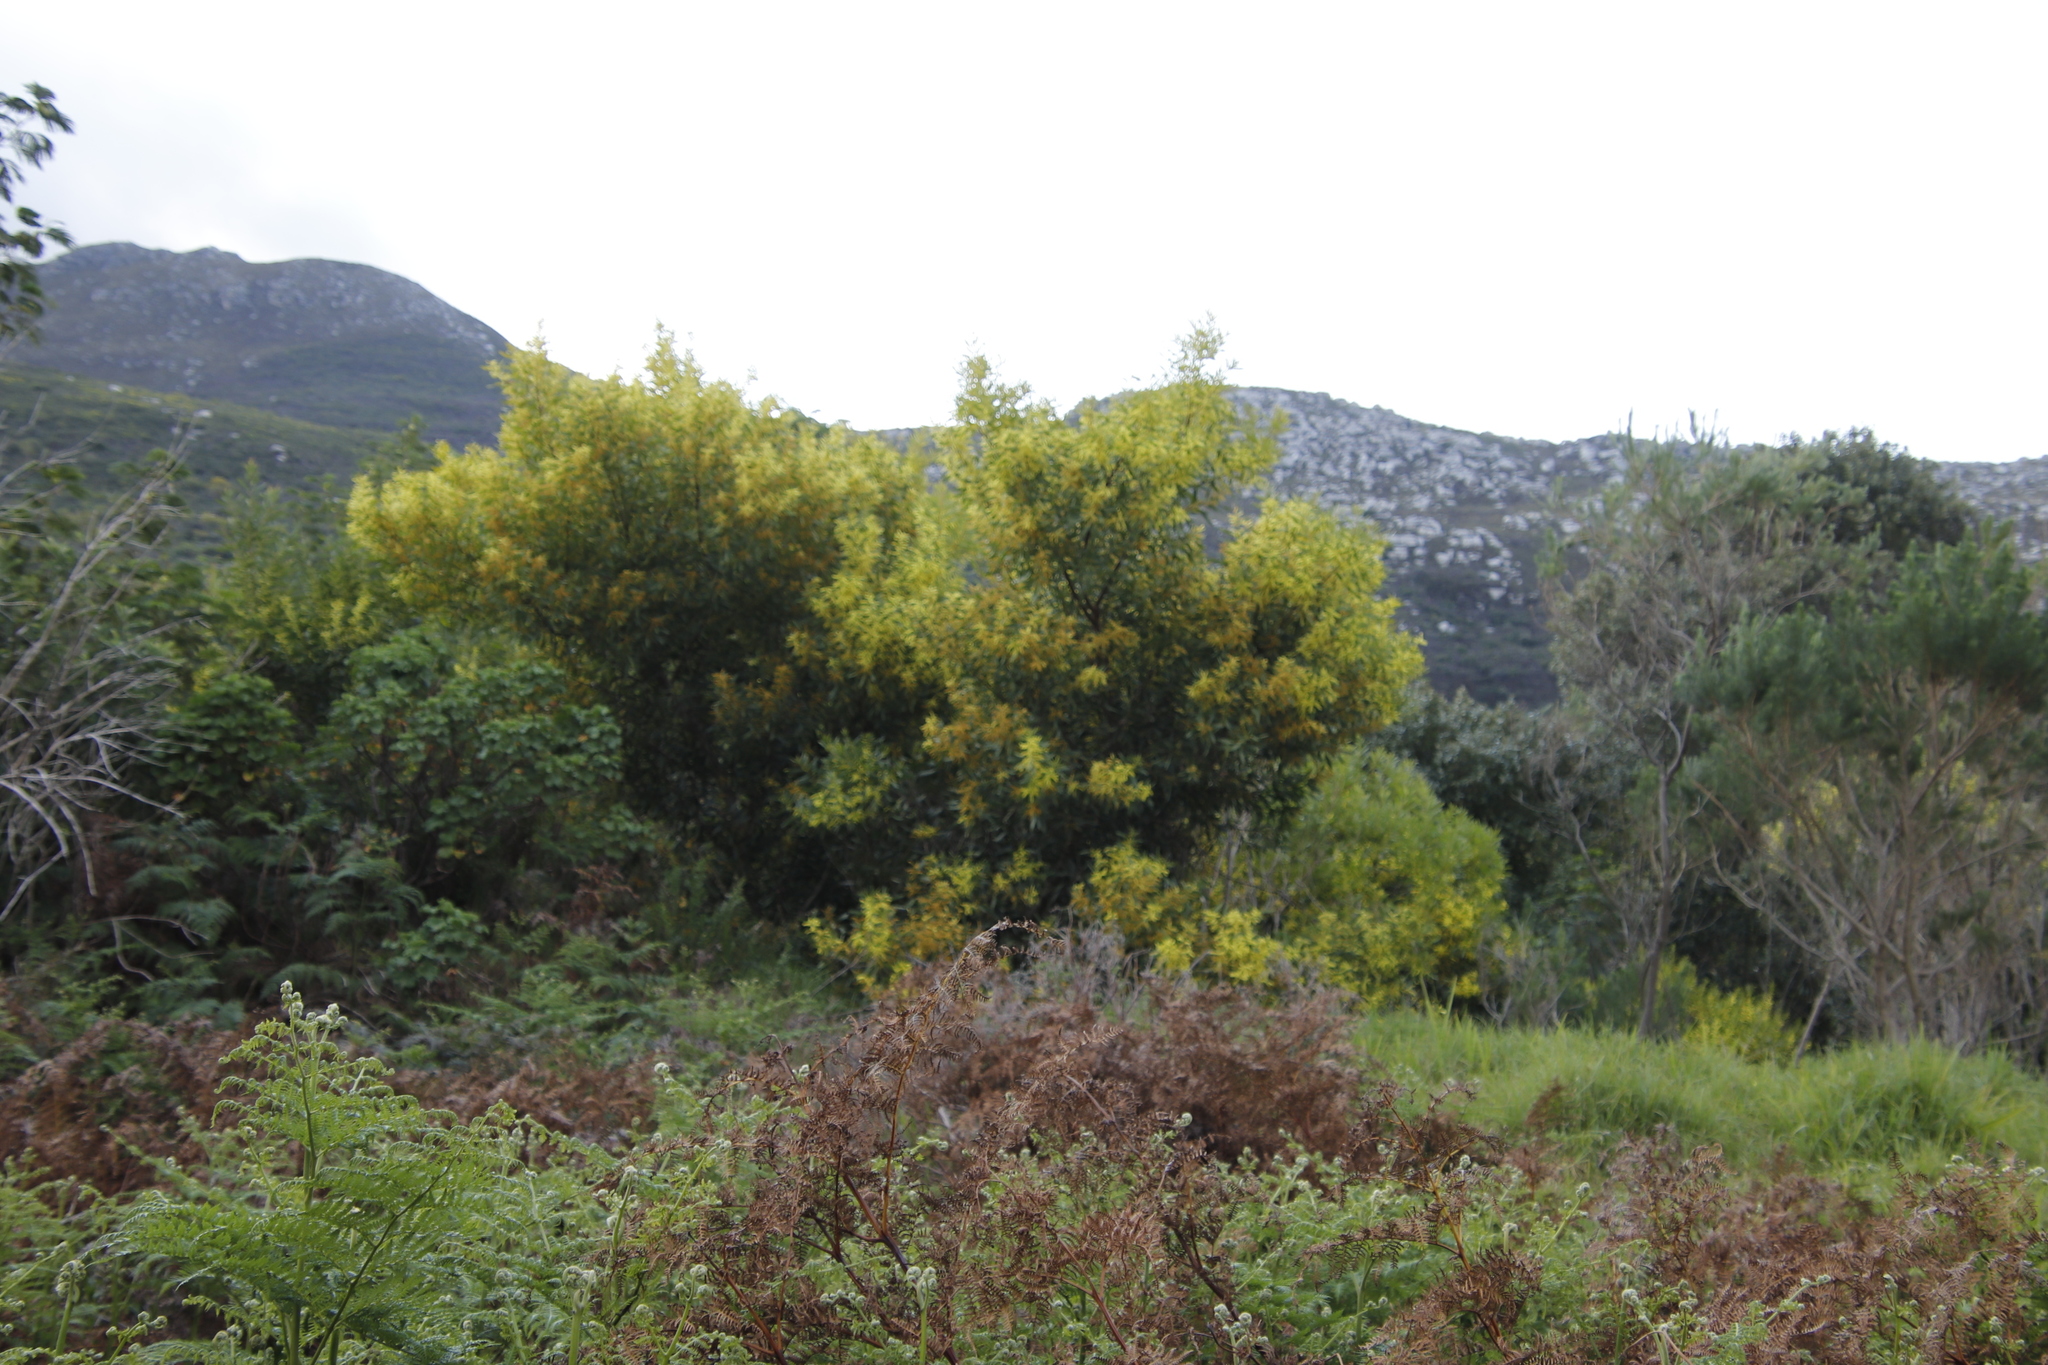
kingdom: Plantae
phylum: Tracheophyta
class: Magnoliopsida
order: Fabales
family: Fabaceae
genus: Acacia
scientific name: Acacia longifolia
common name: Sydney golden wattle
